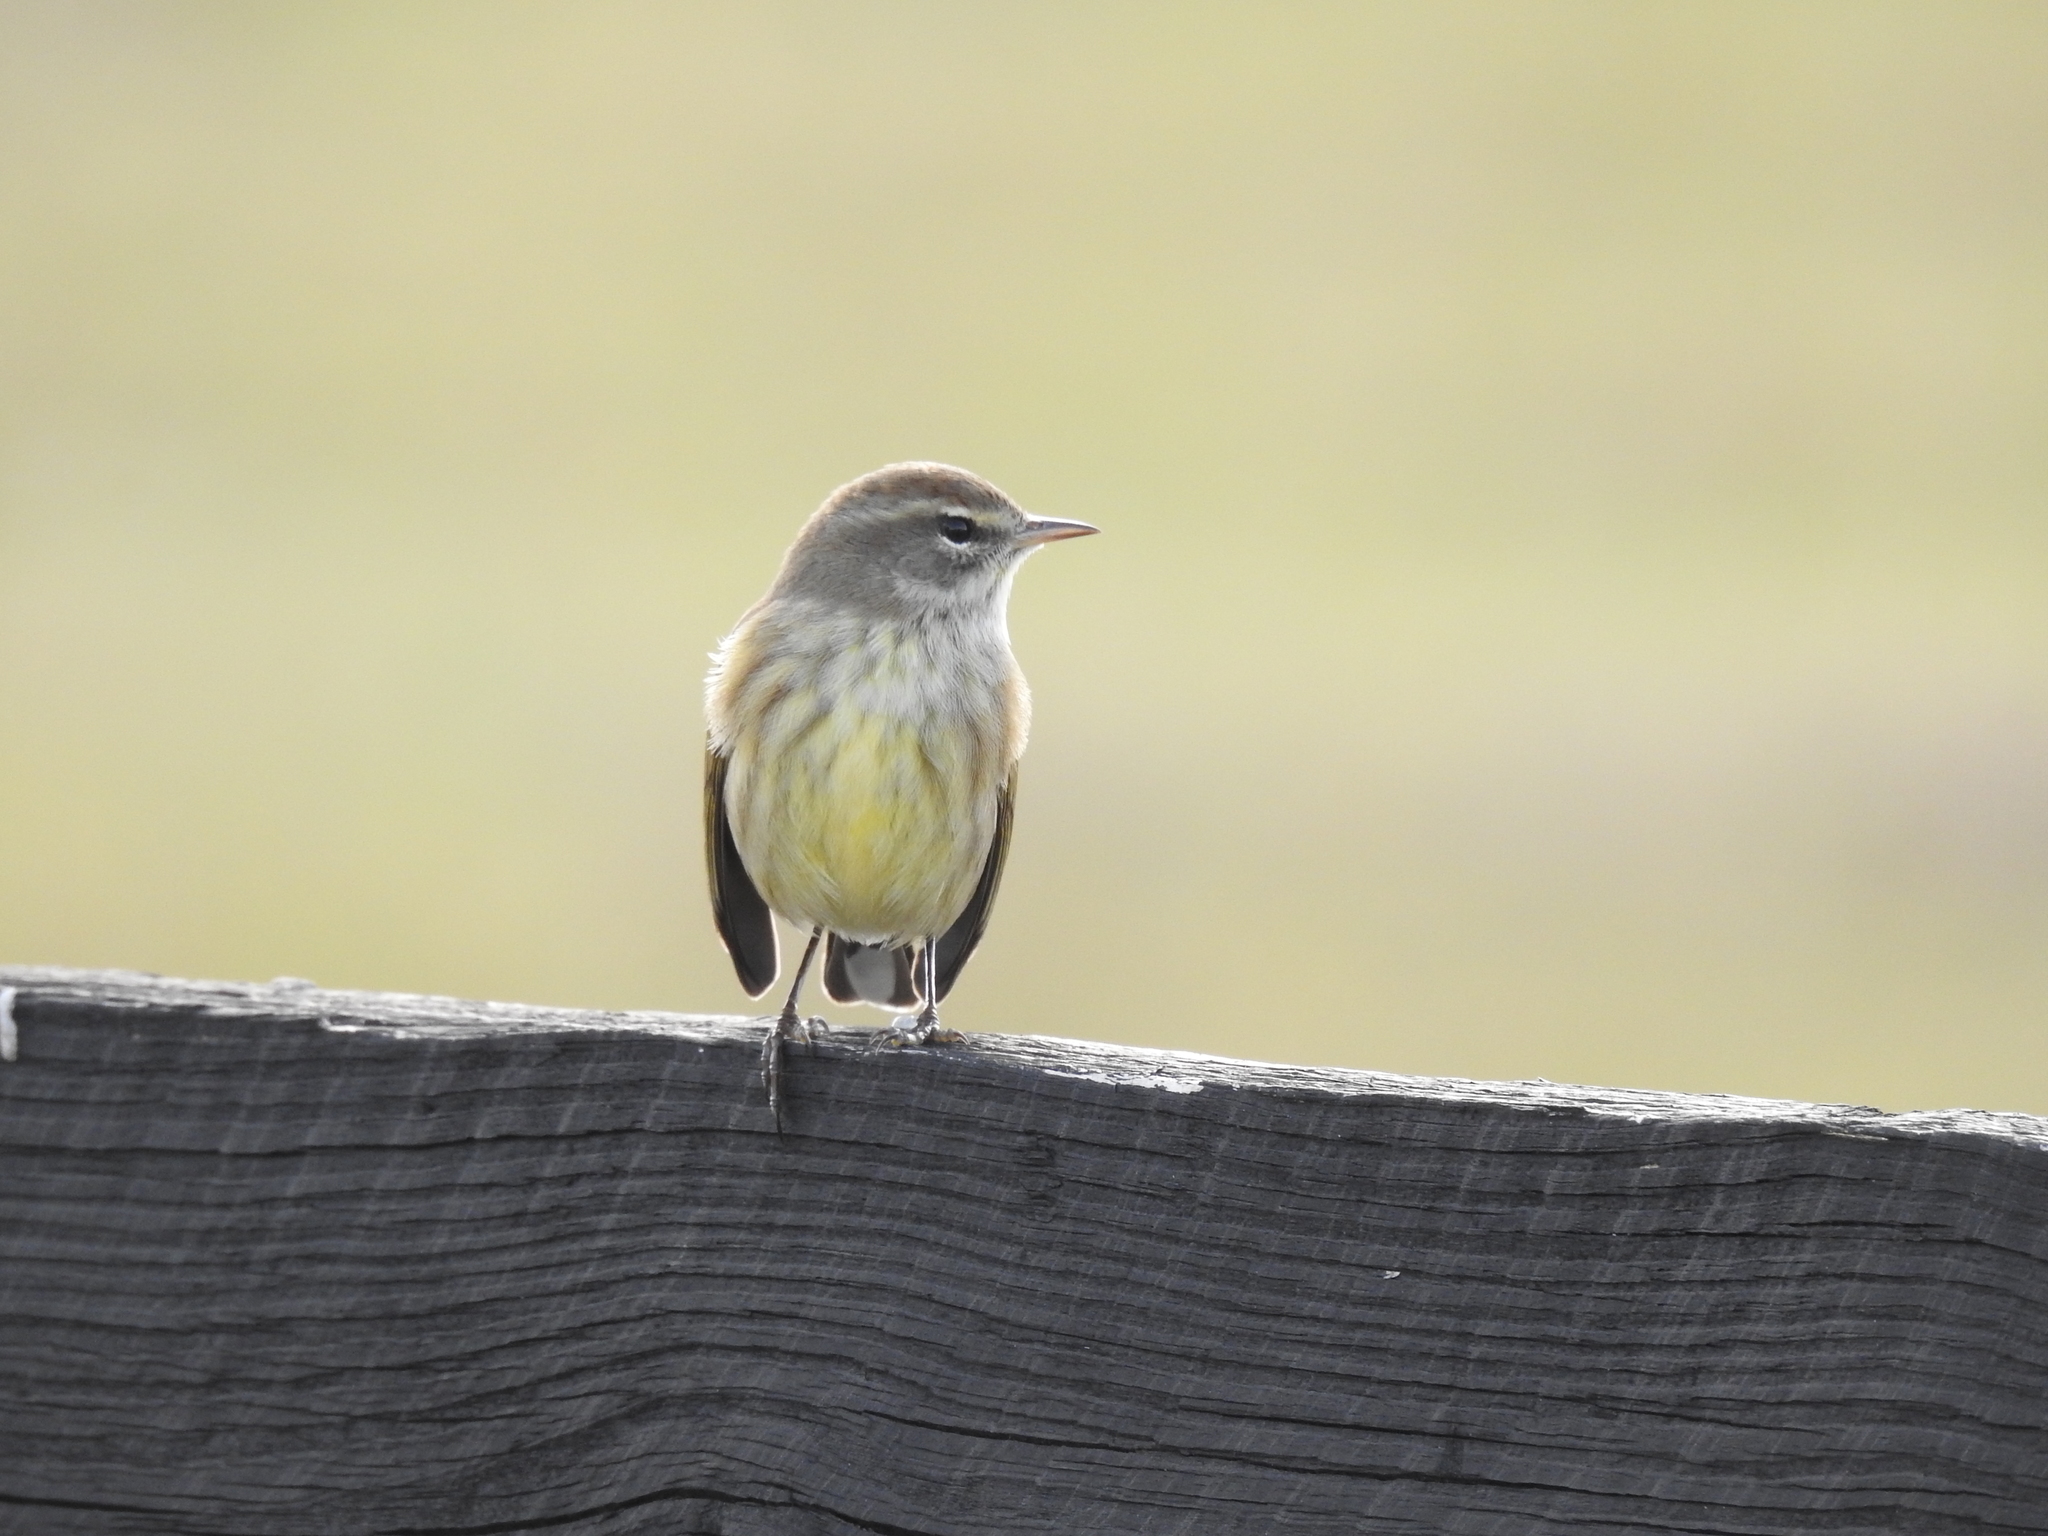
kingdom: Animalia
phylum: Chordata
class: Aves
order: Passeriformes
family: Parulidae
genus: Setophaga
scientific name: Setophaga palmarum
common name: Palm warbler
